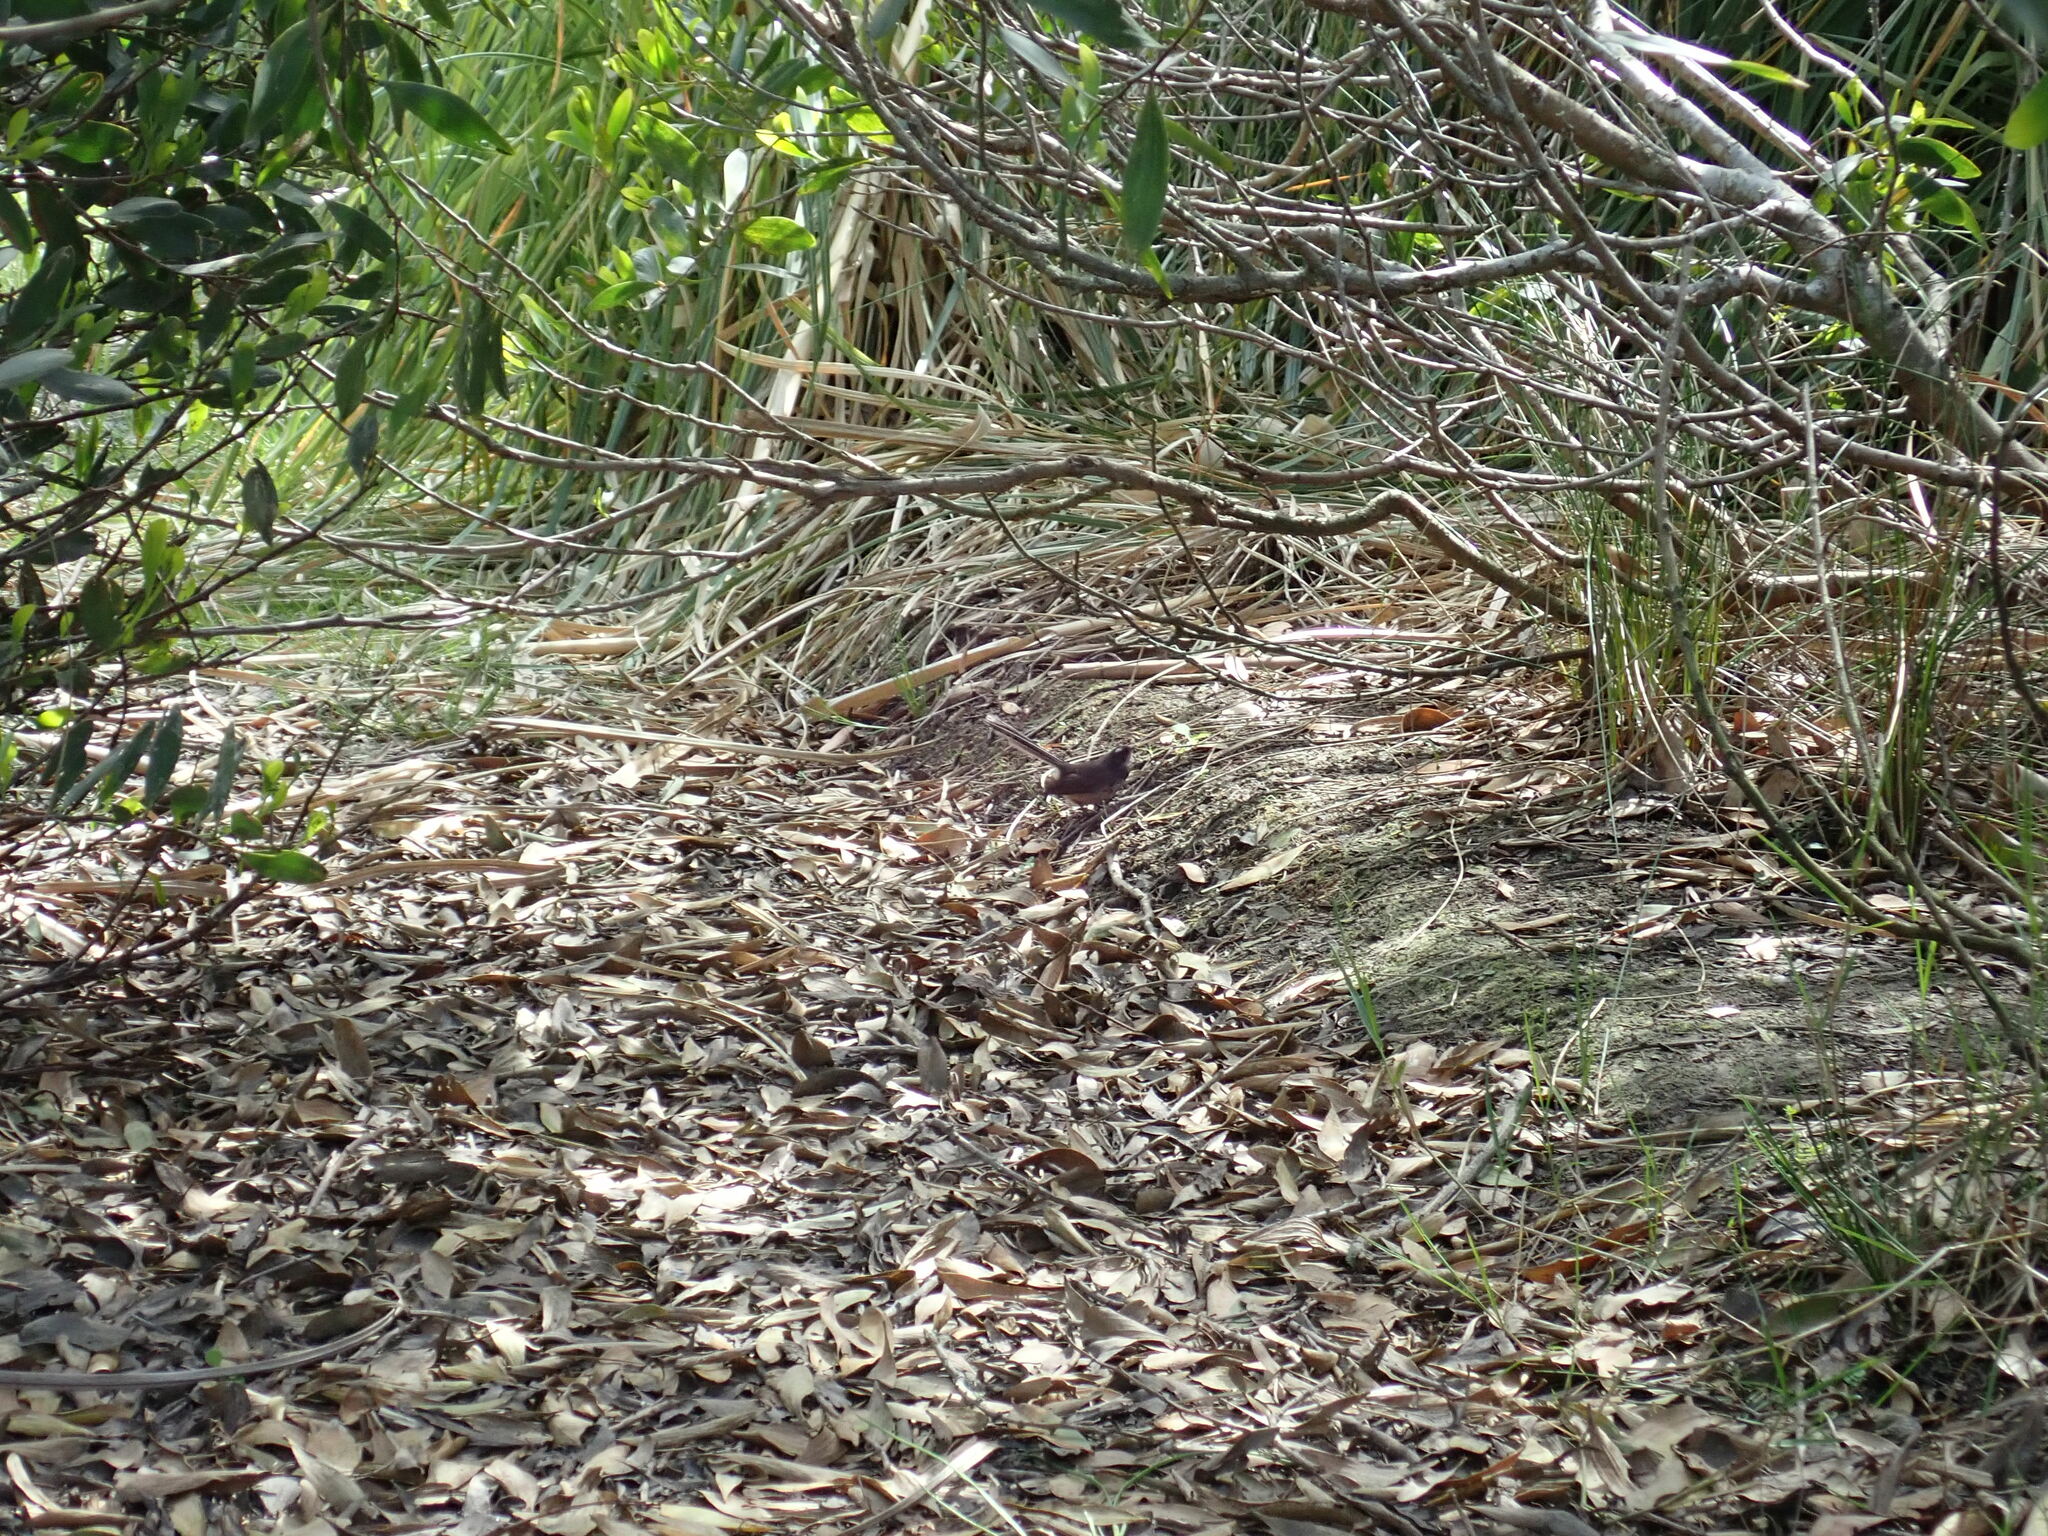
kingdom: Animalia
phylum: Chordata
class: Aves
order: Passeriformes
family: Rhipiduridae
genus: Rhipidura
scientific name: Rhipidura fuliginosa
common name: New zealand fantail
